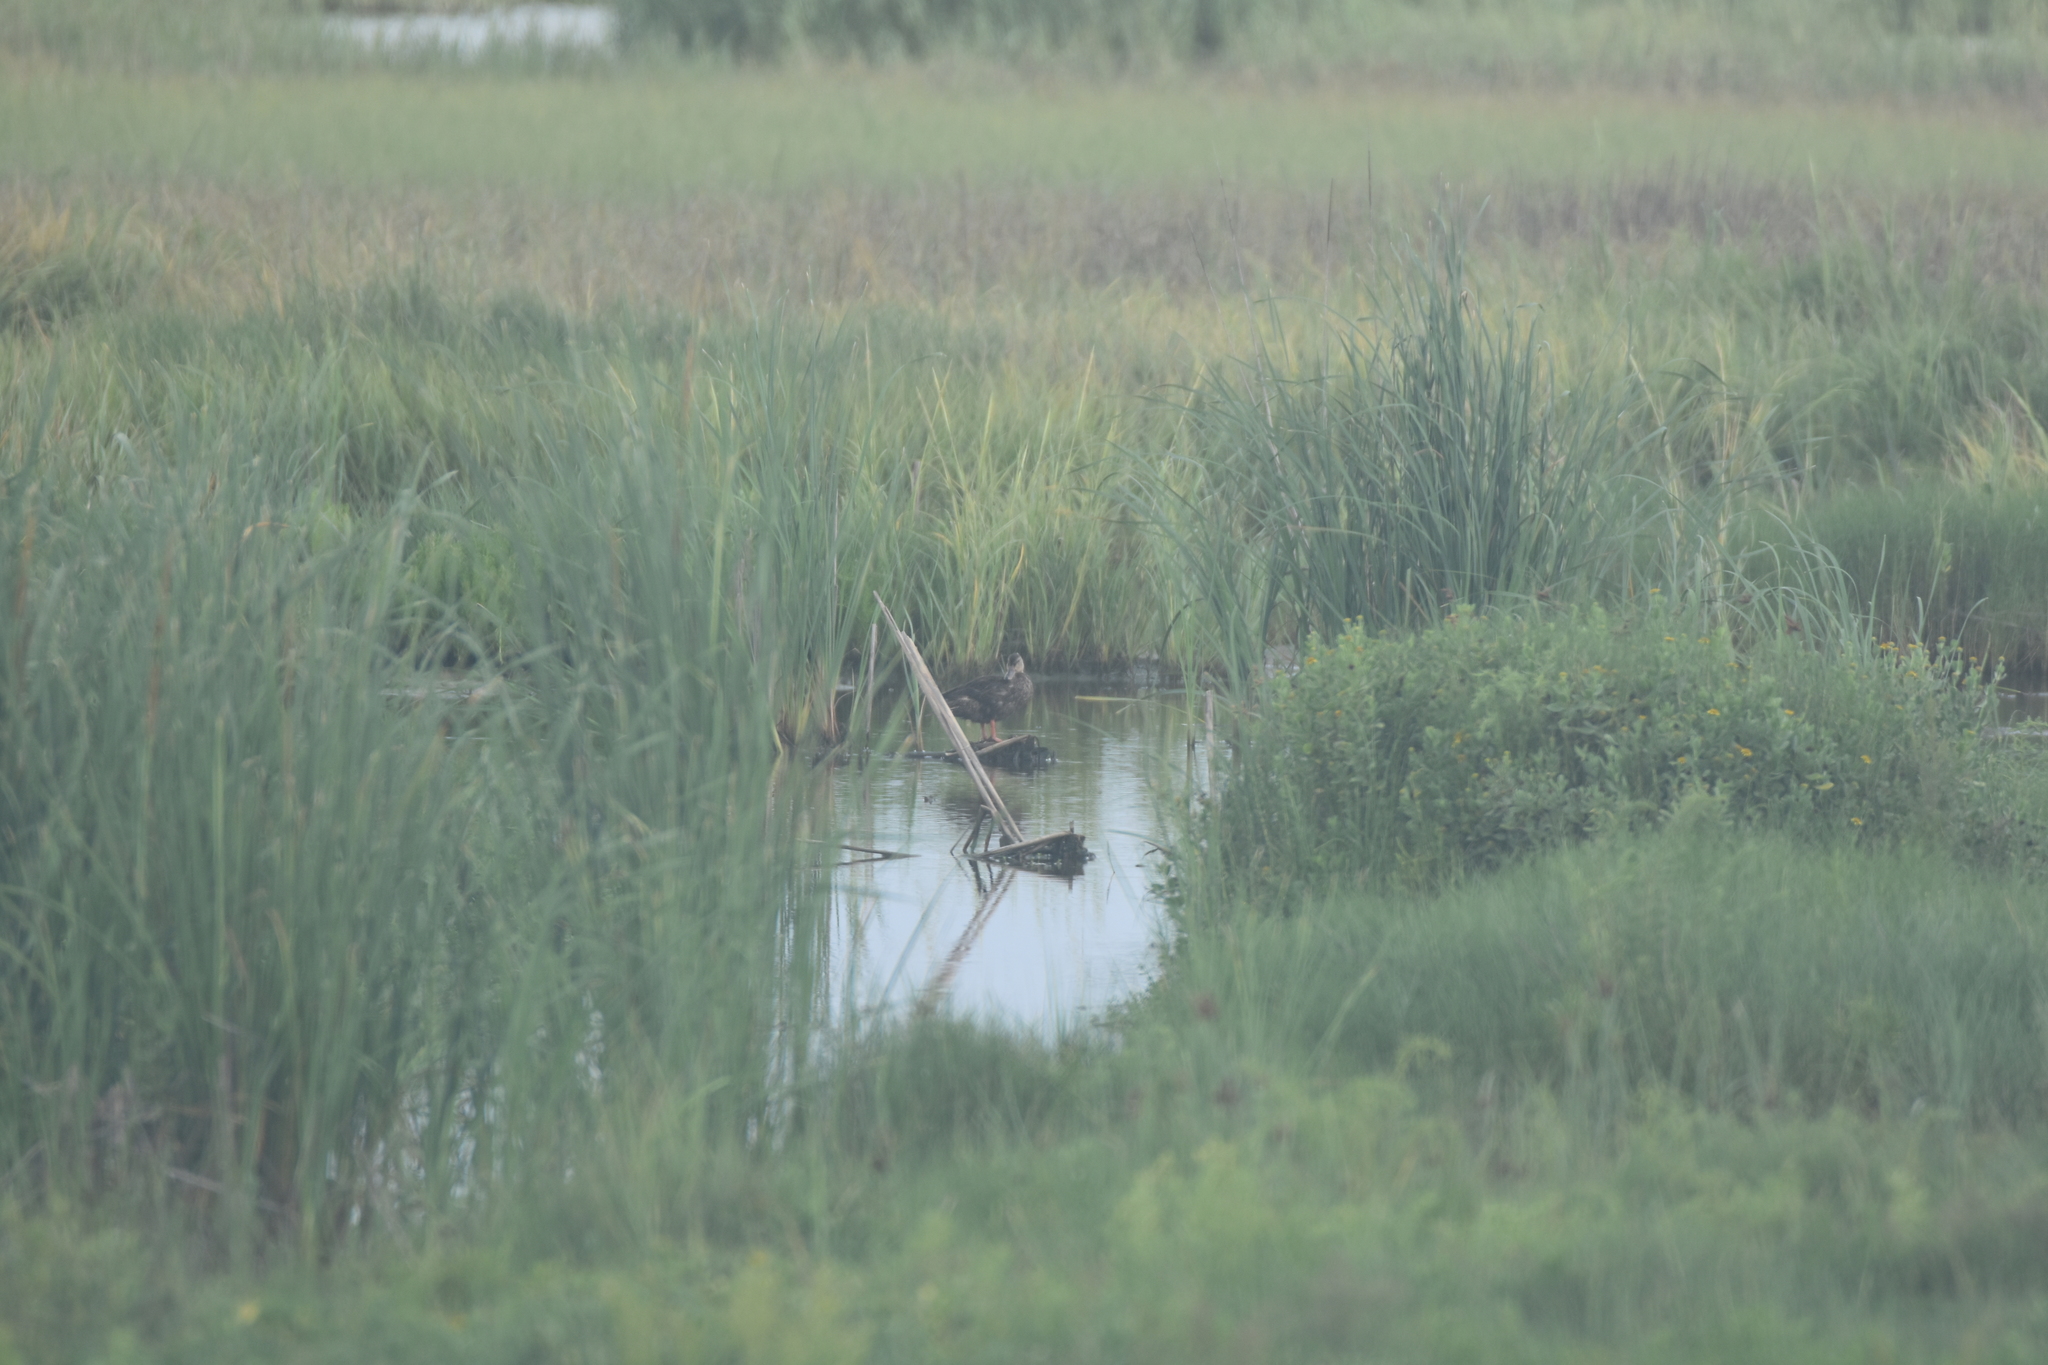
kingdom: Animalia
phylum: Chordata
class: Aves
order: Anseriformes
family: Anatidae
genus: Anas
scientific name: Anas fulvigula
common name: Mottled duck
